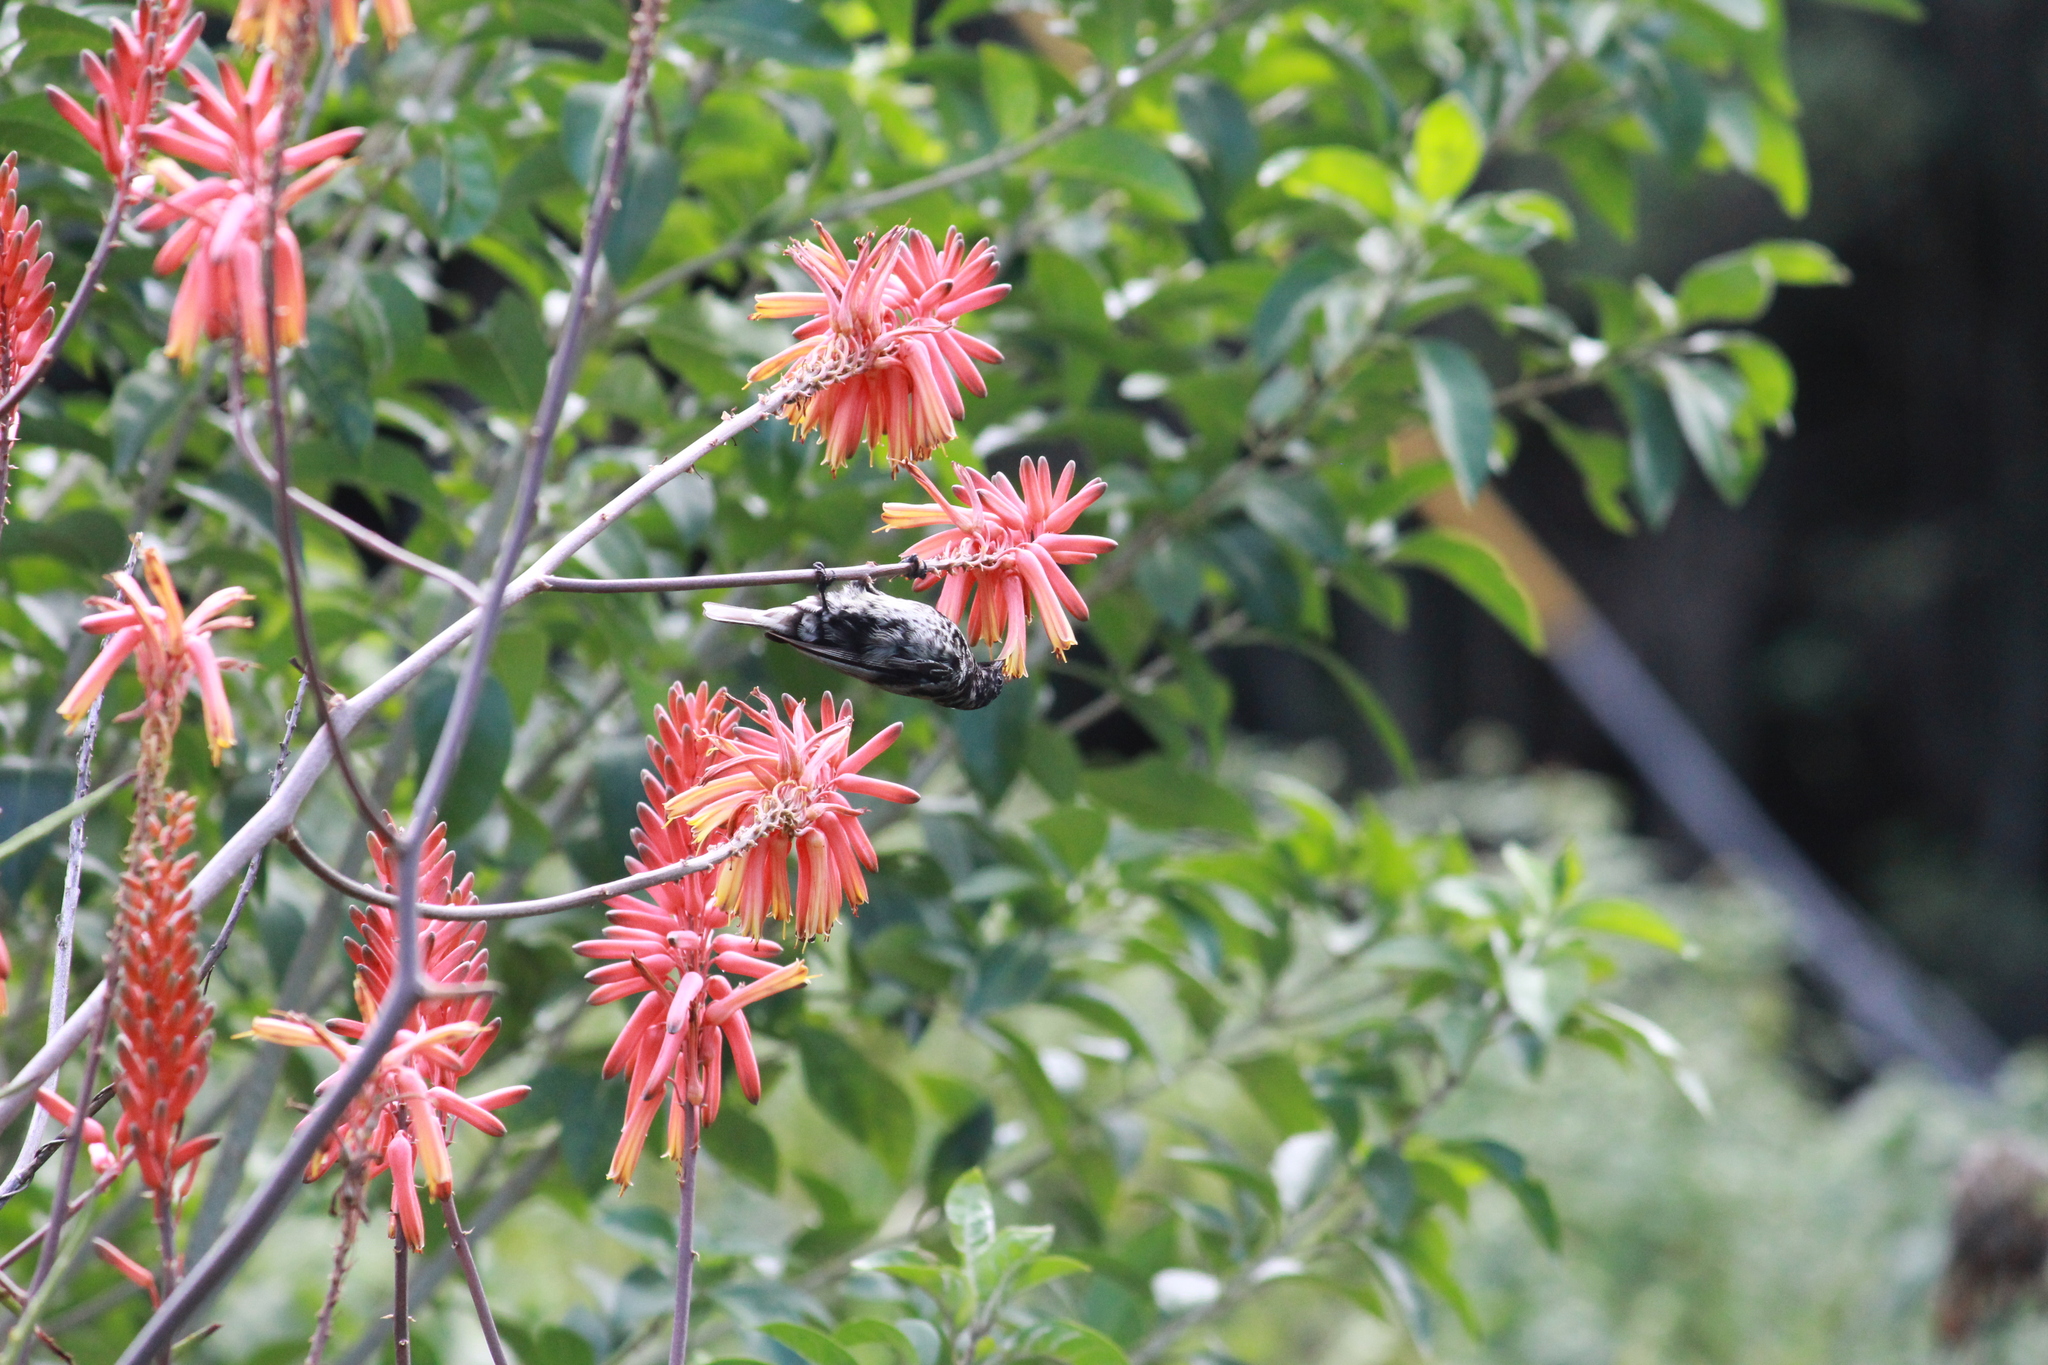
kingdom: Animalia
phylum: Chordata
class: Aves
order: Passeriformes
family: Nectariniidae
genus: Chalcomitra
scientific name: Chalcomitra amethystina
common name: Amethyst sunbird
